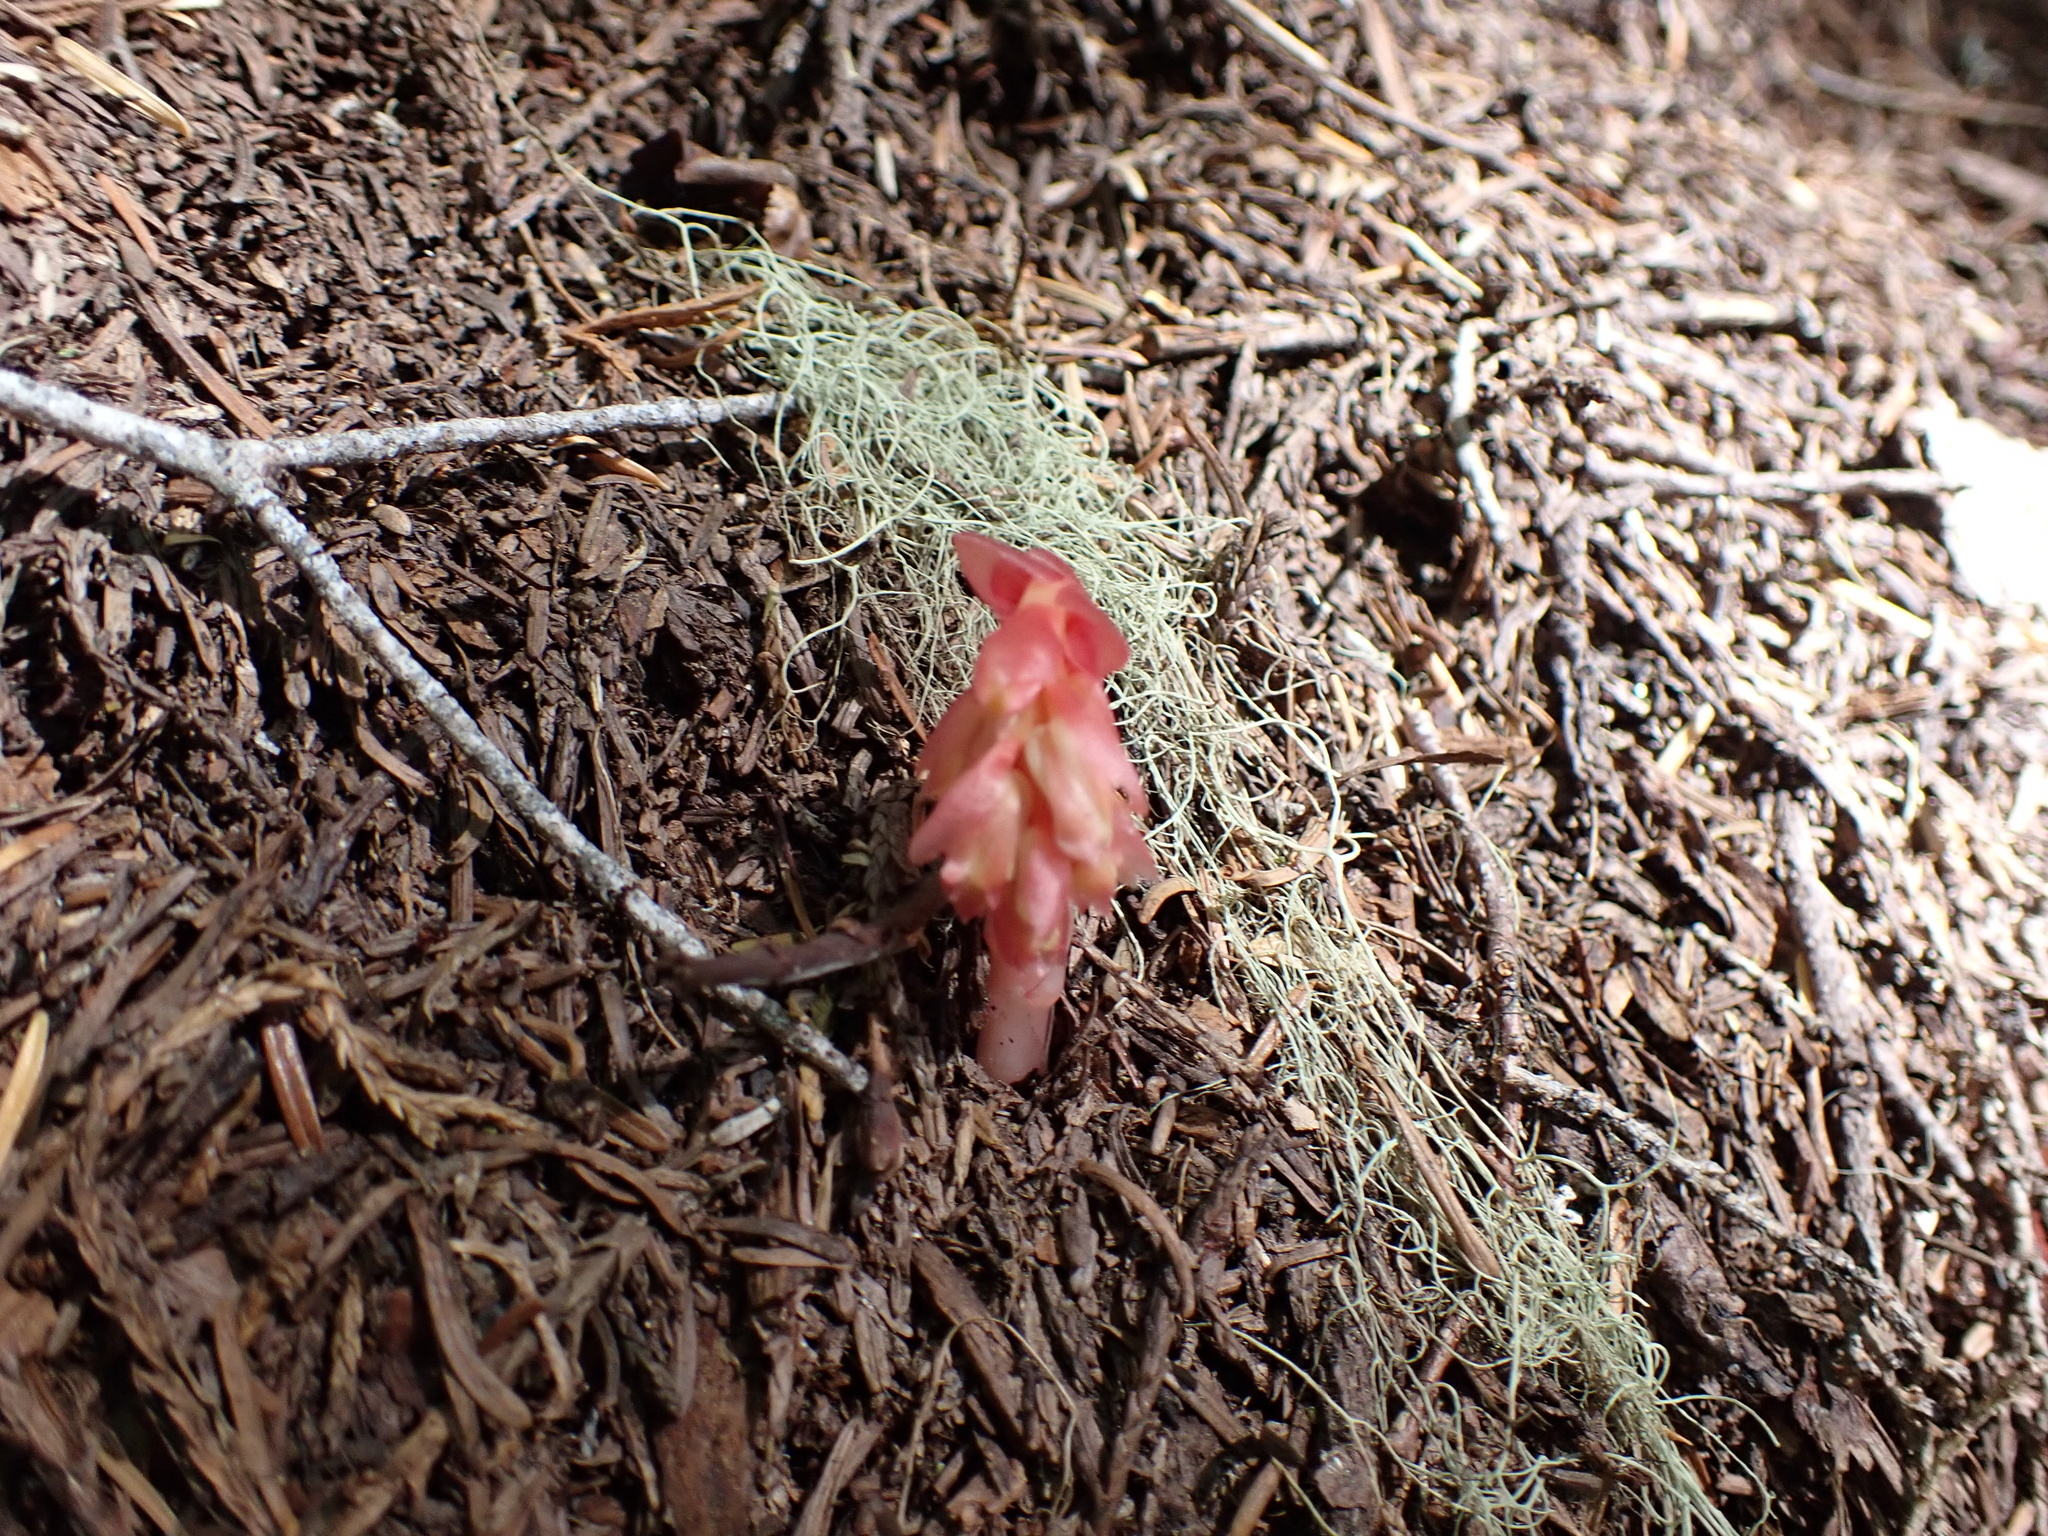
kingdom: Plantae
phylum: Tracheophyta
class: Magnoliopsida
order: Ericales
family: Ericaceae
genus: Hypopitys
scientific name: Hypopitys monotropa
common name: Yellow bird's-nest
